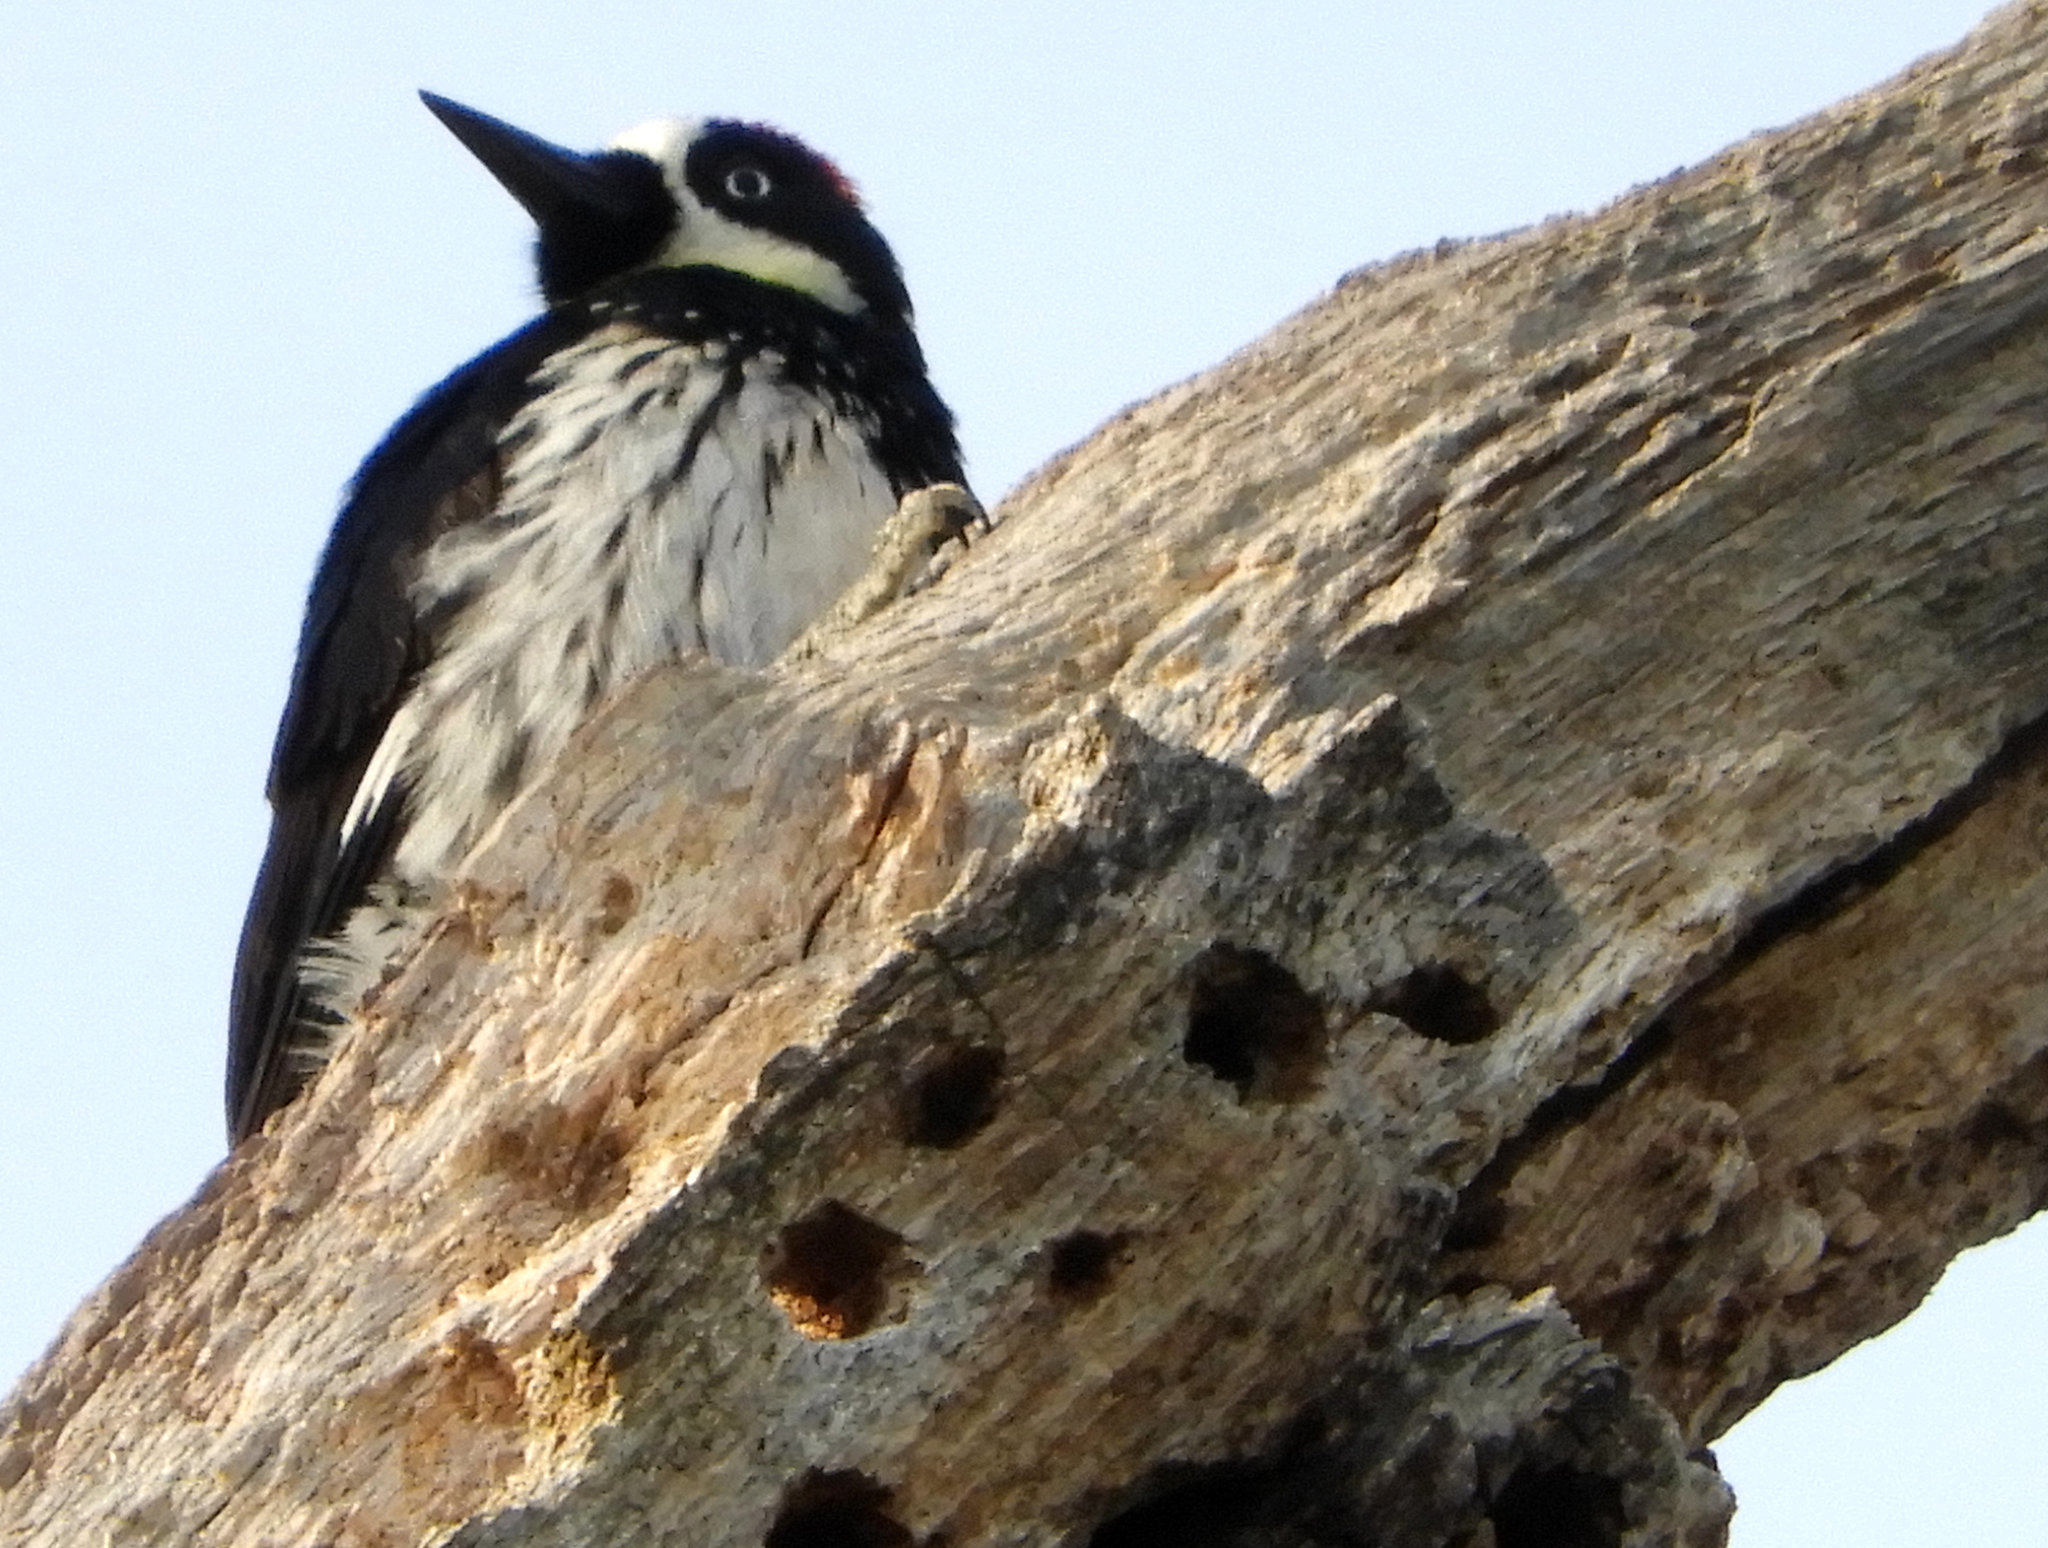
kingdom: Animalia
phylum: Chordata
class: Aves
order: Piciformes
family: Picidae
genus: Melanerpes
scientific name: Melanerpes formicivorus
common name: Acorn woodpecker
